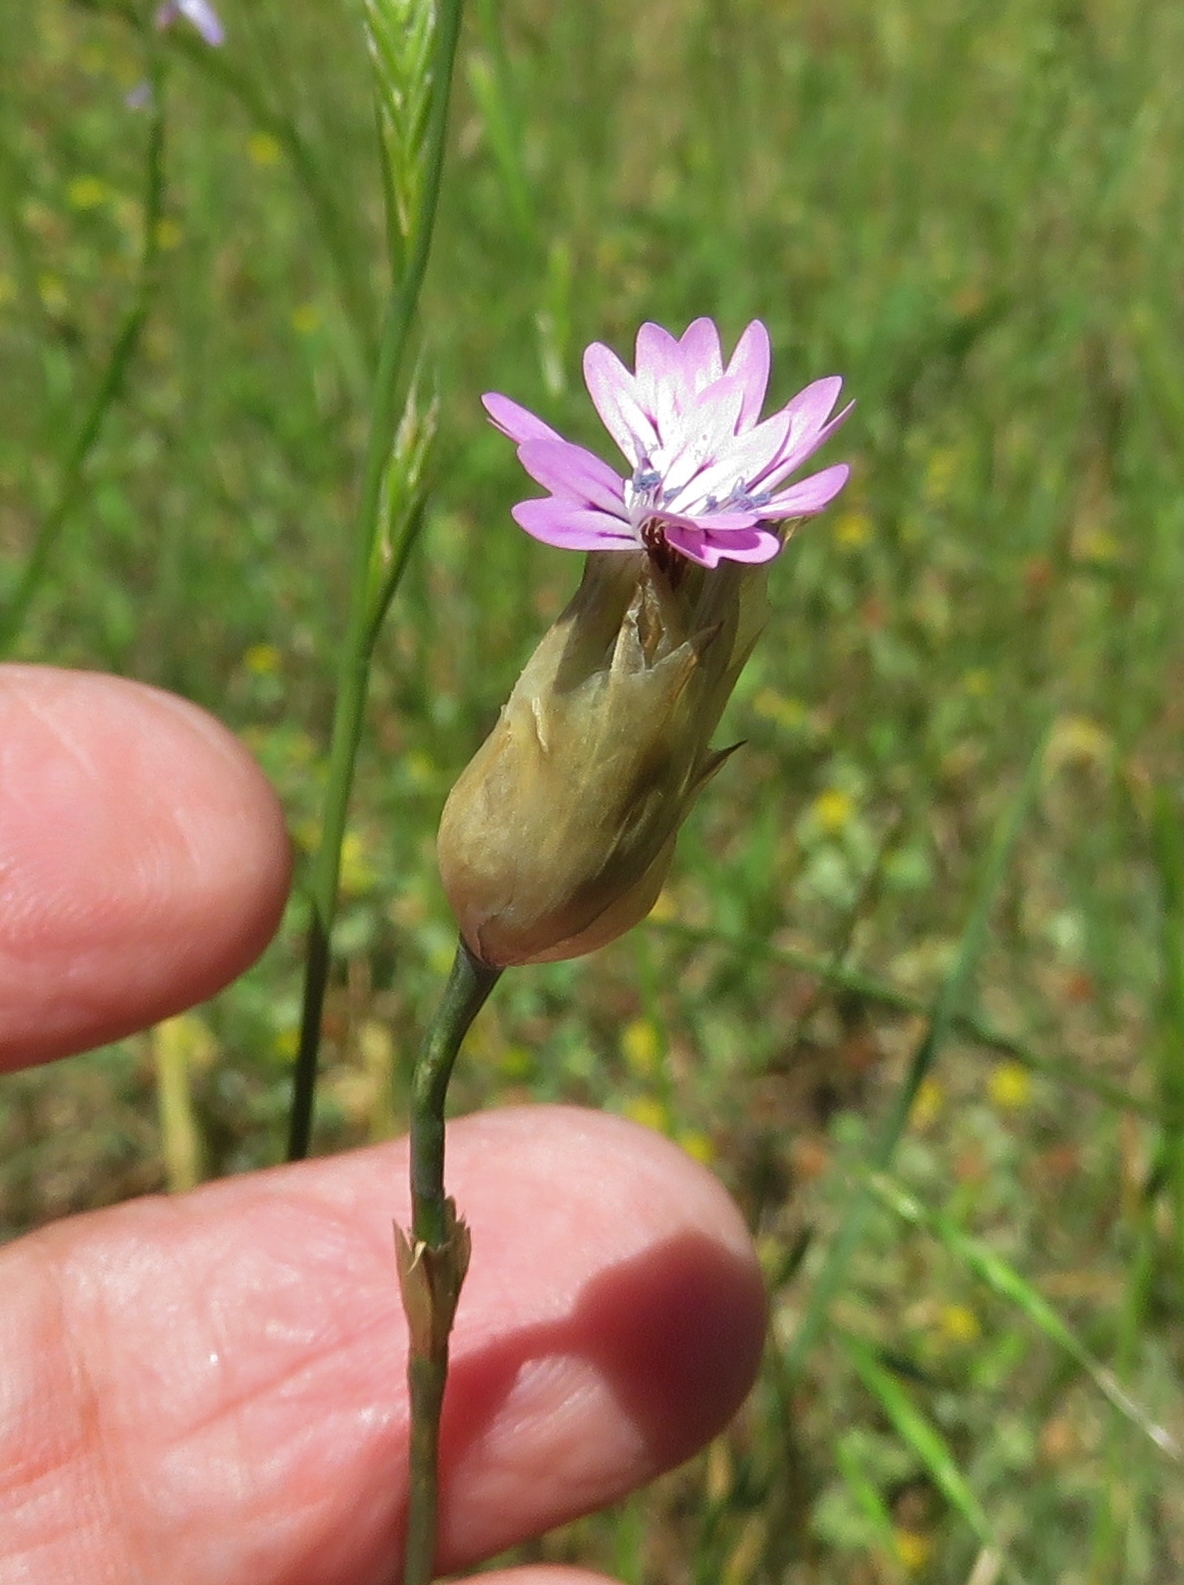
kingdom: Plantae
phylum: Tracheophyta
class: Magnoliopsida
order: Caryophyllales
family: Caryophyllaceae
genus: Petrorhagia
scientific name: Petrorhagia dubia
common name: Hairypink
